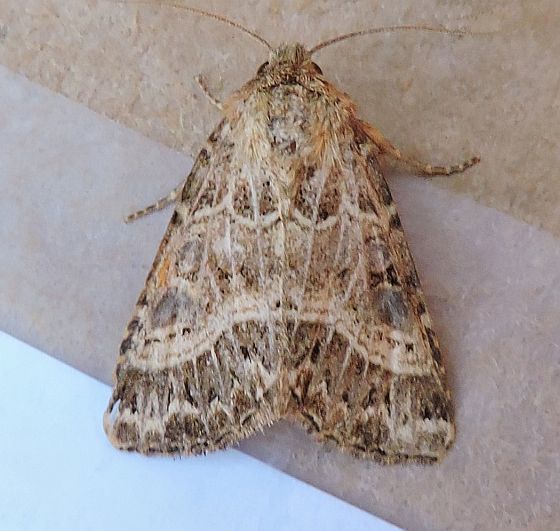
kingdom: Animalia
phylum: Arthropoda
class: Insecta
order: Lepidoptera
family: Noctuidae
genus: Schinia
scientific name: Schinia mexicana
